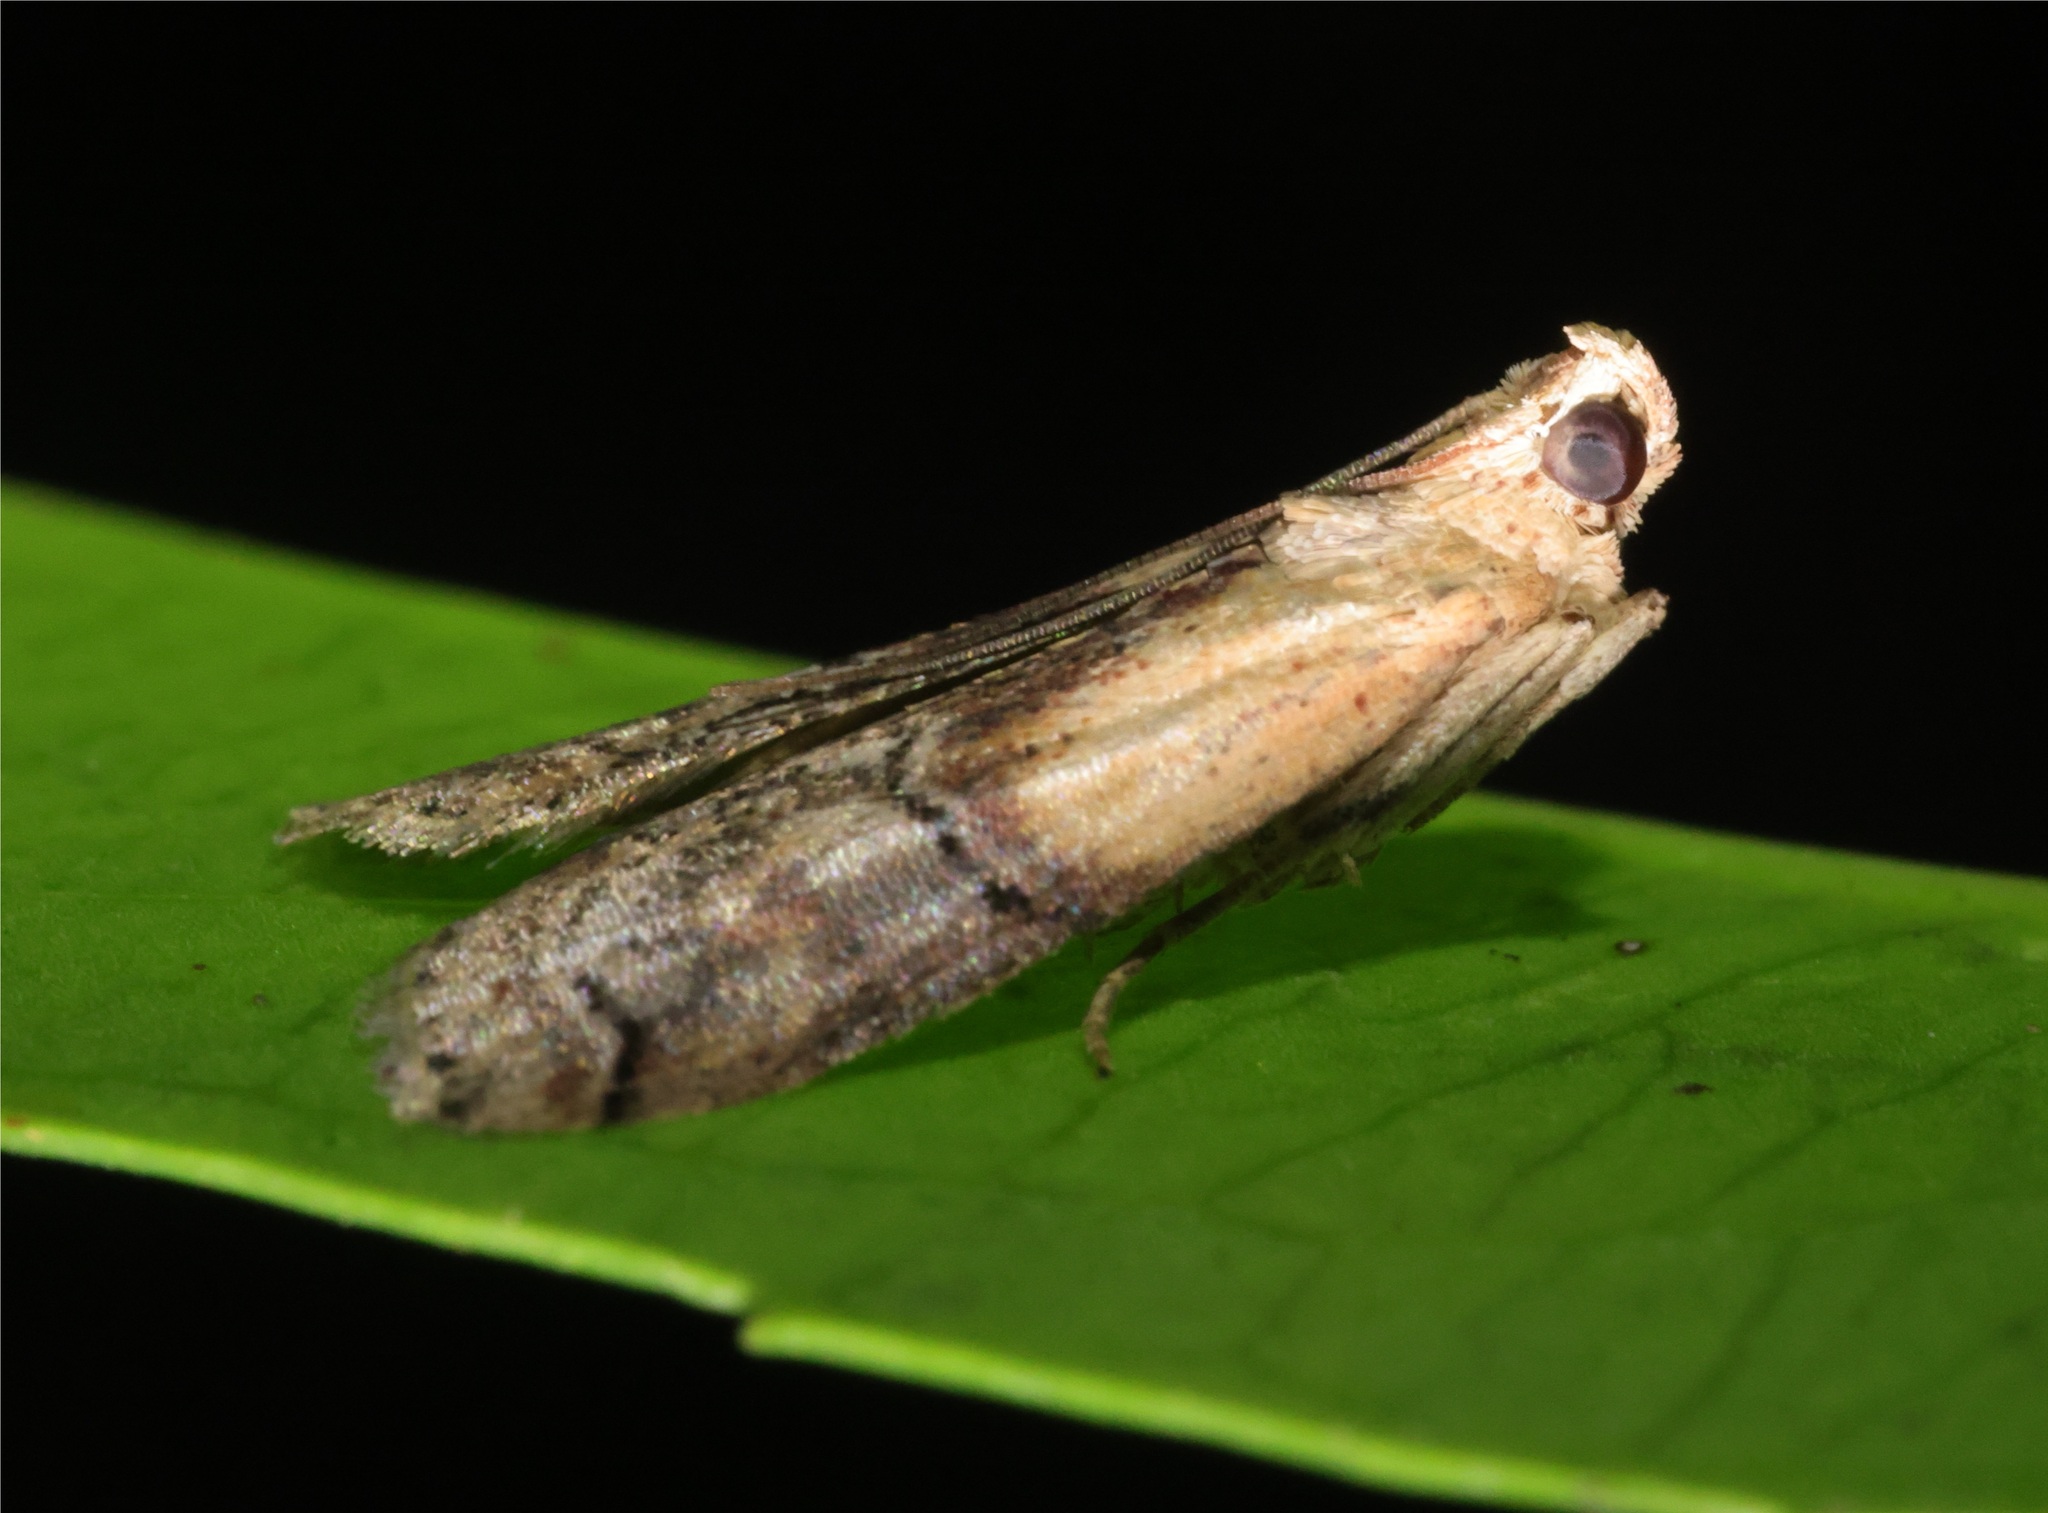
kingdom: Animalia
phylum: Arthropoda
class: Insecta
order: Lepidoptera
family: Pyralidae
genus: Nephopterix
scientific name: Nephopterix ochribasalis
